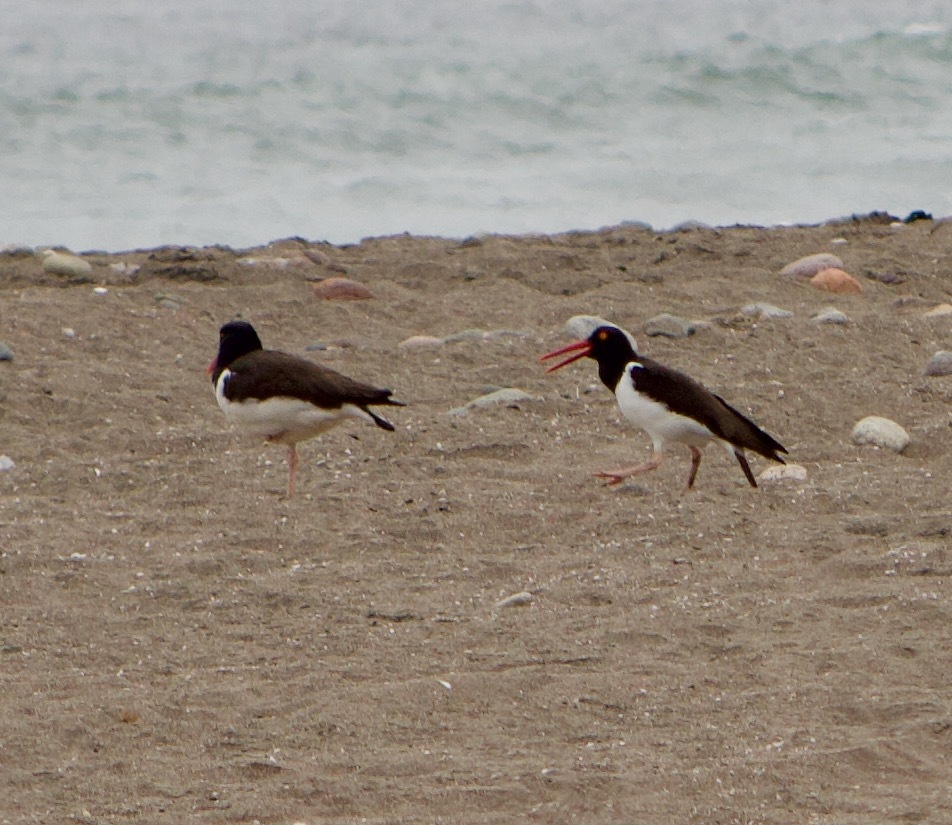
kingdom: Animalia
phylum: Chordata
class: Aves
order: Charadriiformes
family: Haematopodidae
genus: Haematopus
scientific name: Haematopus palliatus
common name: American oystercatcher
